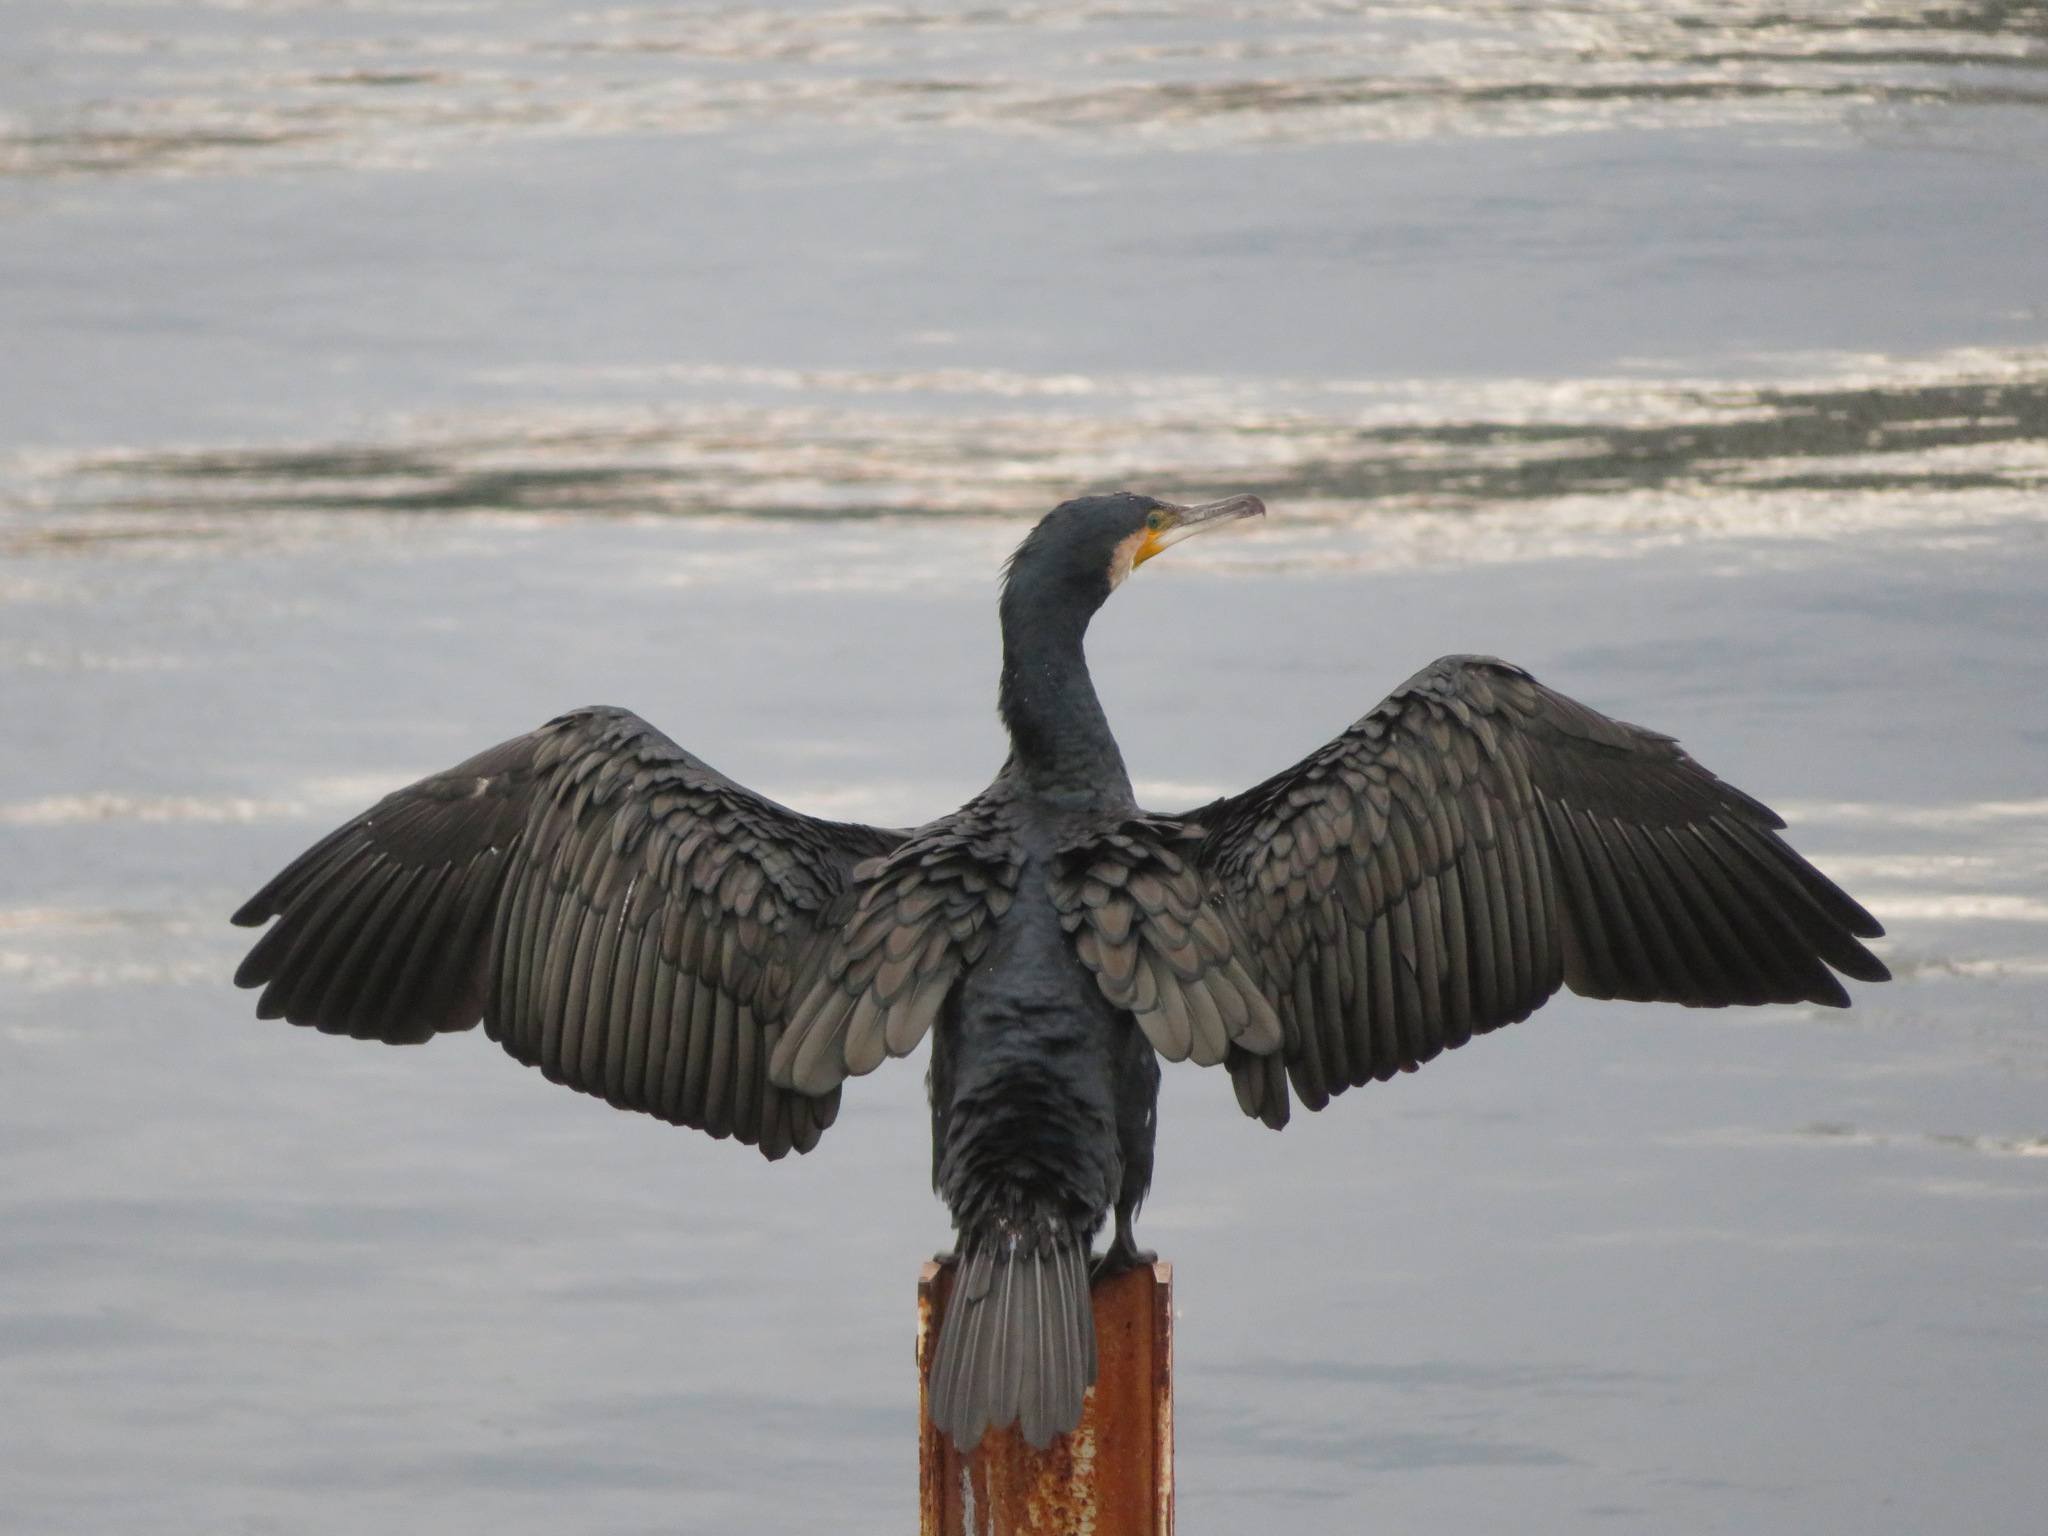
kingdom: Animalia
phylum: Chordata
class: Aves
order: Suliformes
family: Phalacrocoracidae
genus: Phalacrocorax
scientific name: Phalacrocorax carbo
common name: Great cormorant
